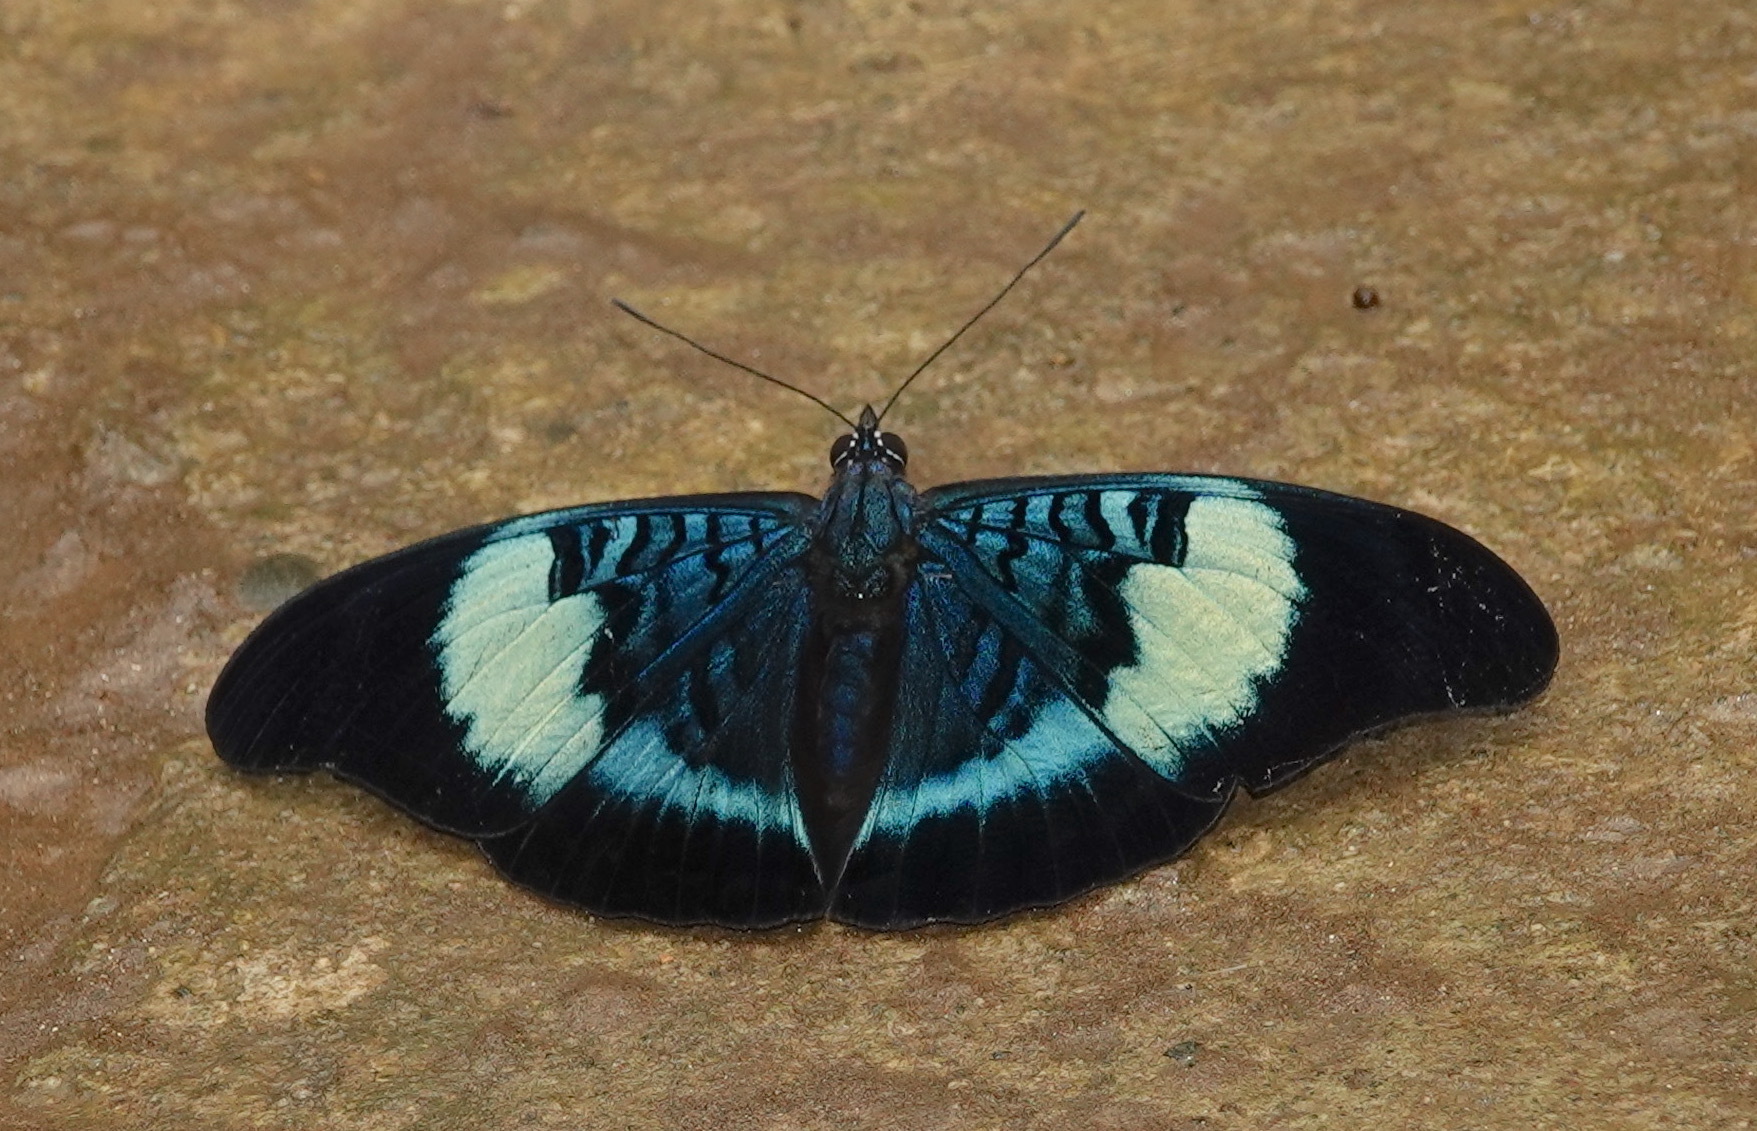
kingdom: Animalia
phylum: Arthropoda
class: Insecta
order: Lepidoptera
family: Nymphalidae
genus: Panacea
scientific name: Panacea prola
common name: Red flasher
